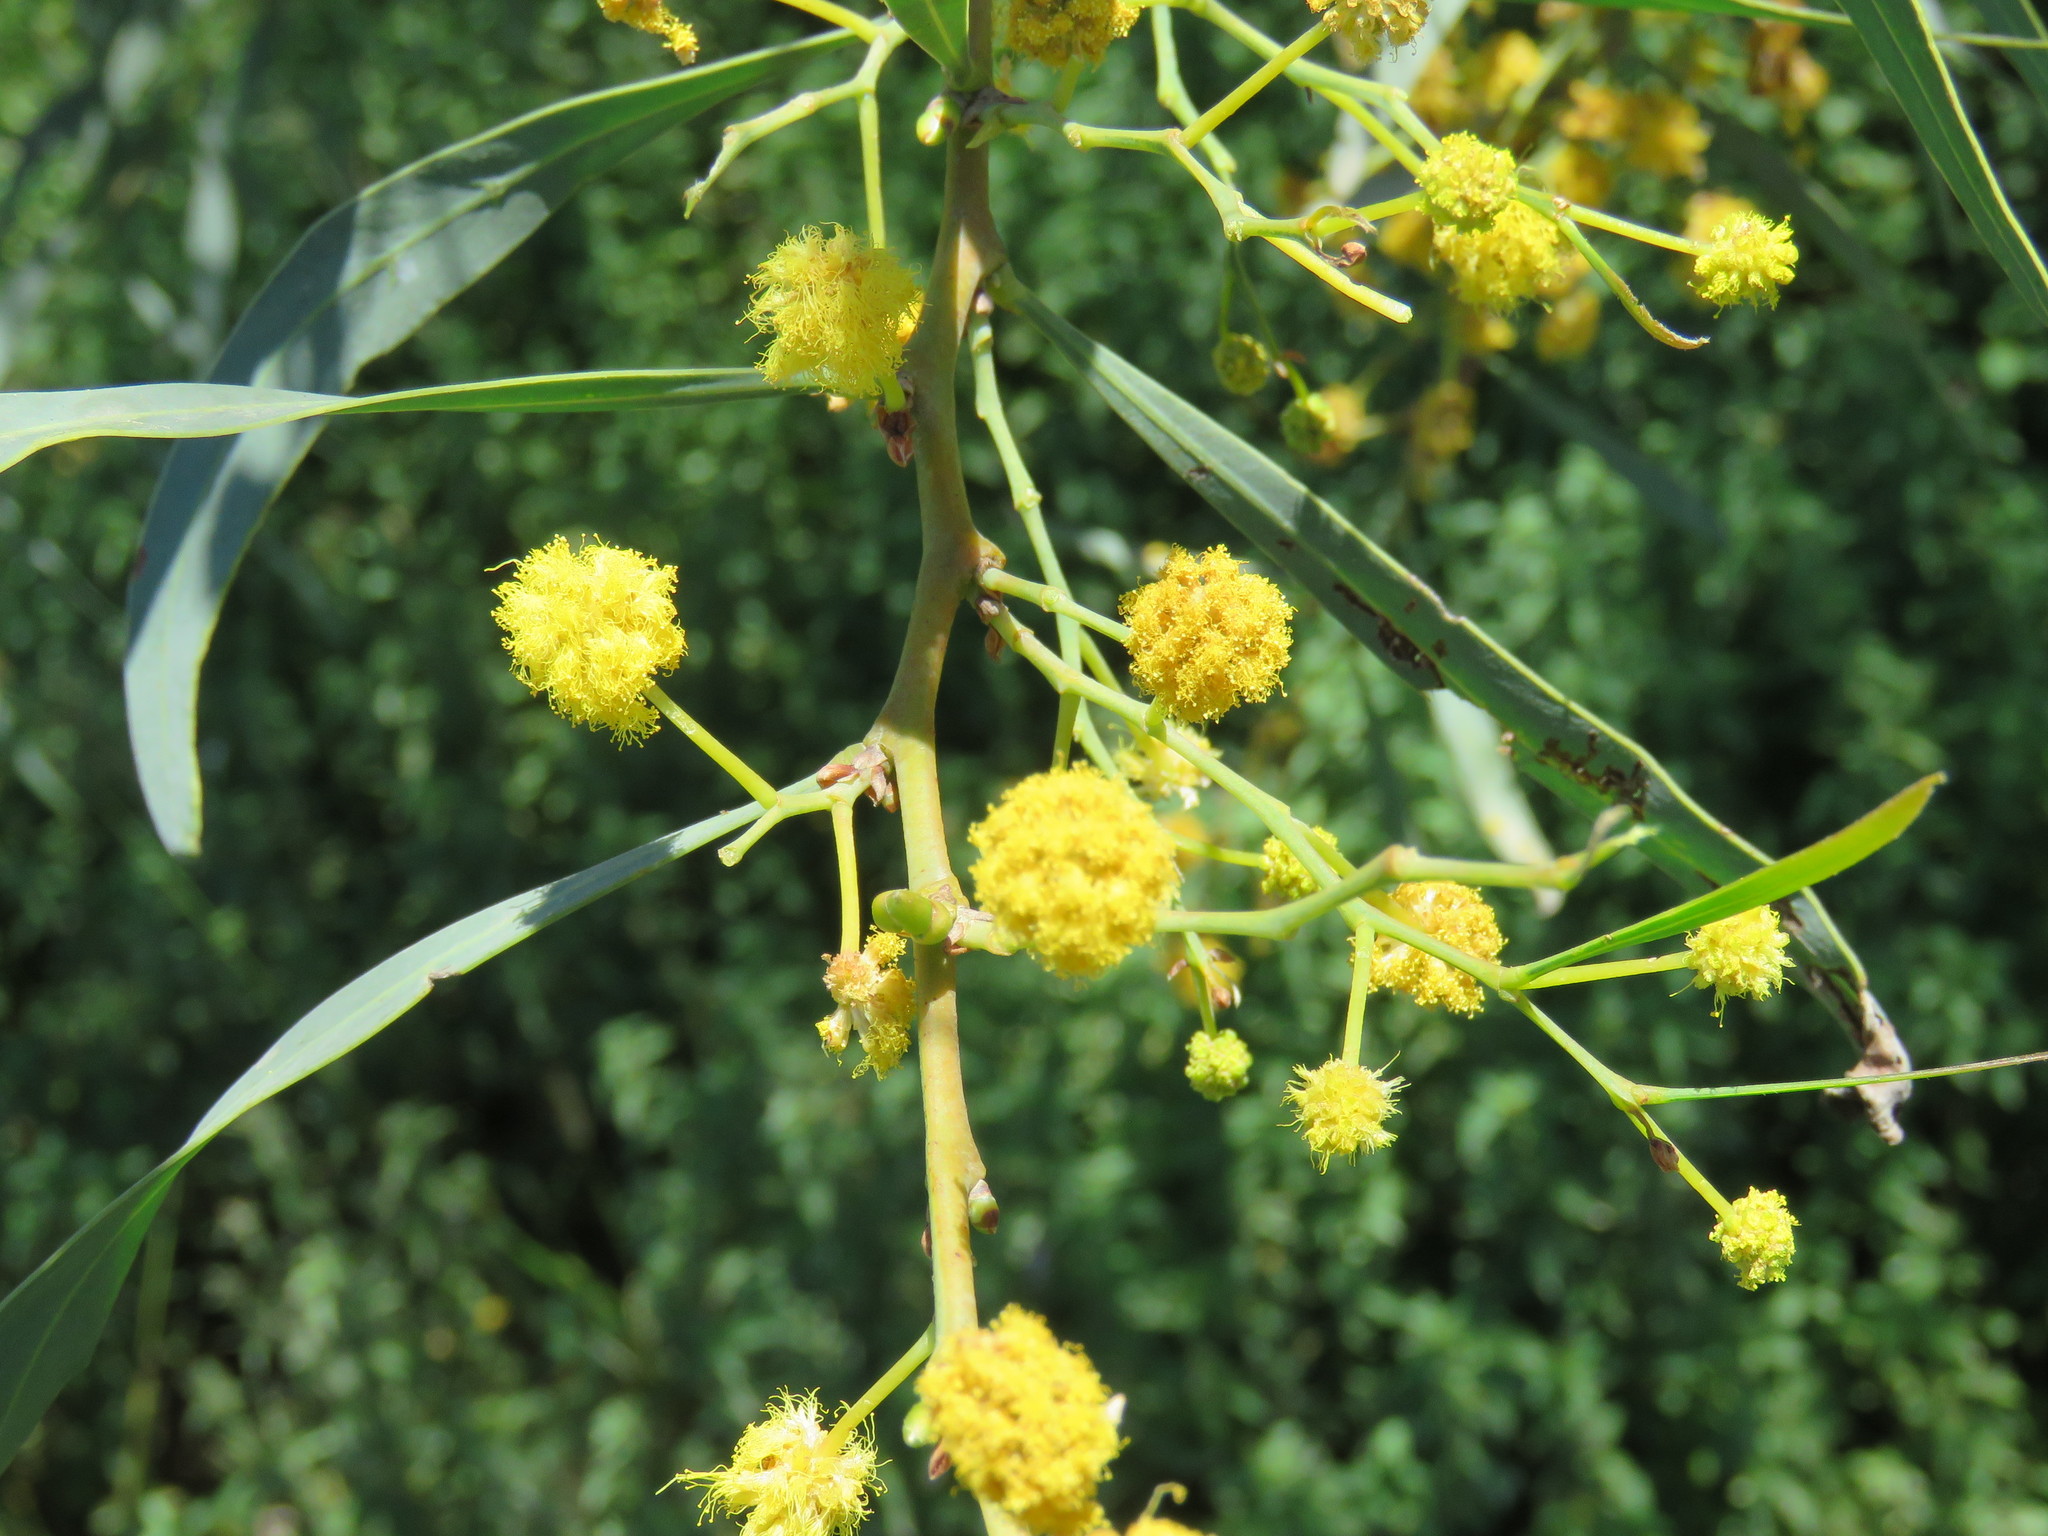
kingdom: Plantae
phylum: Tracheophyta
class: Magnoliopsida
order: Fabales
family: Fabaceae
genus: Acacia
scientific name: Acacia retinodes
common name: Silver wattle
